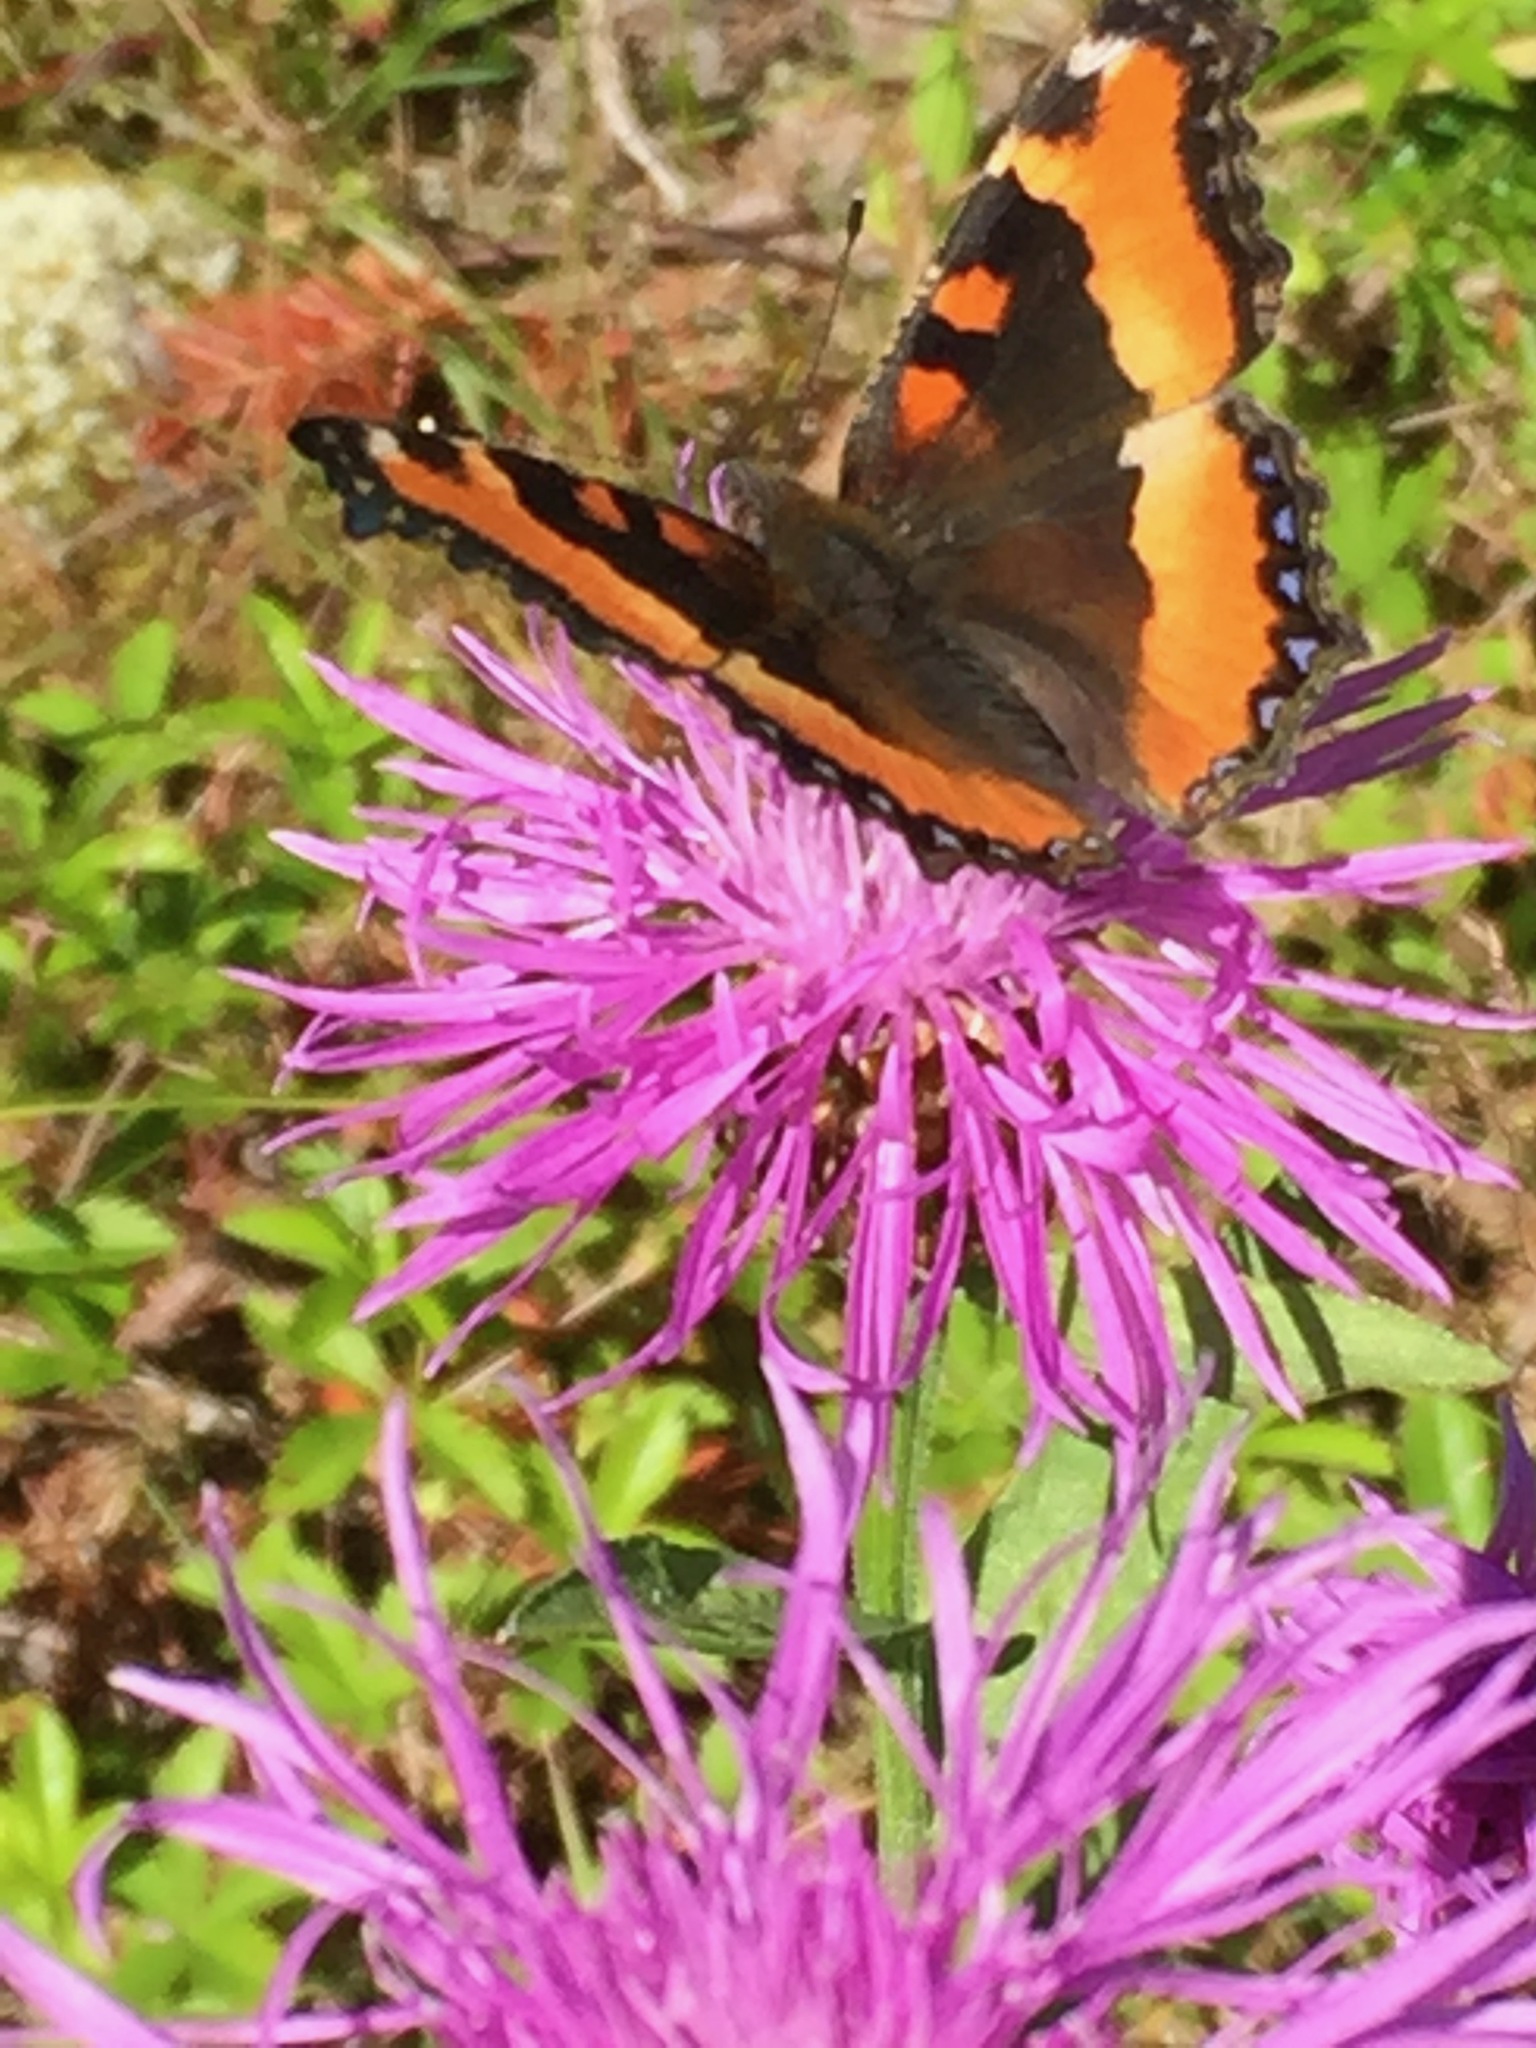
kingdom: Animalia
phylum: Arthropoda
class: Insecta
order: Lepidoptera
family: Nymphalidae
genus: Aglais
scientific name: Aglais milberti
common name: Milbert's tortoiseshell
